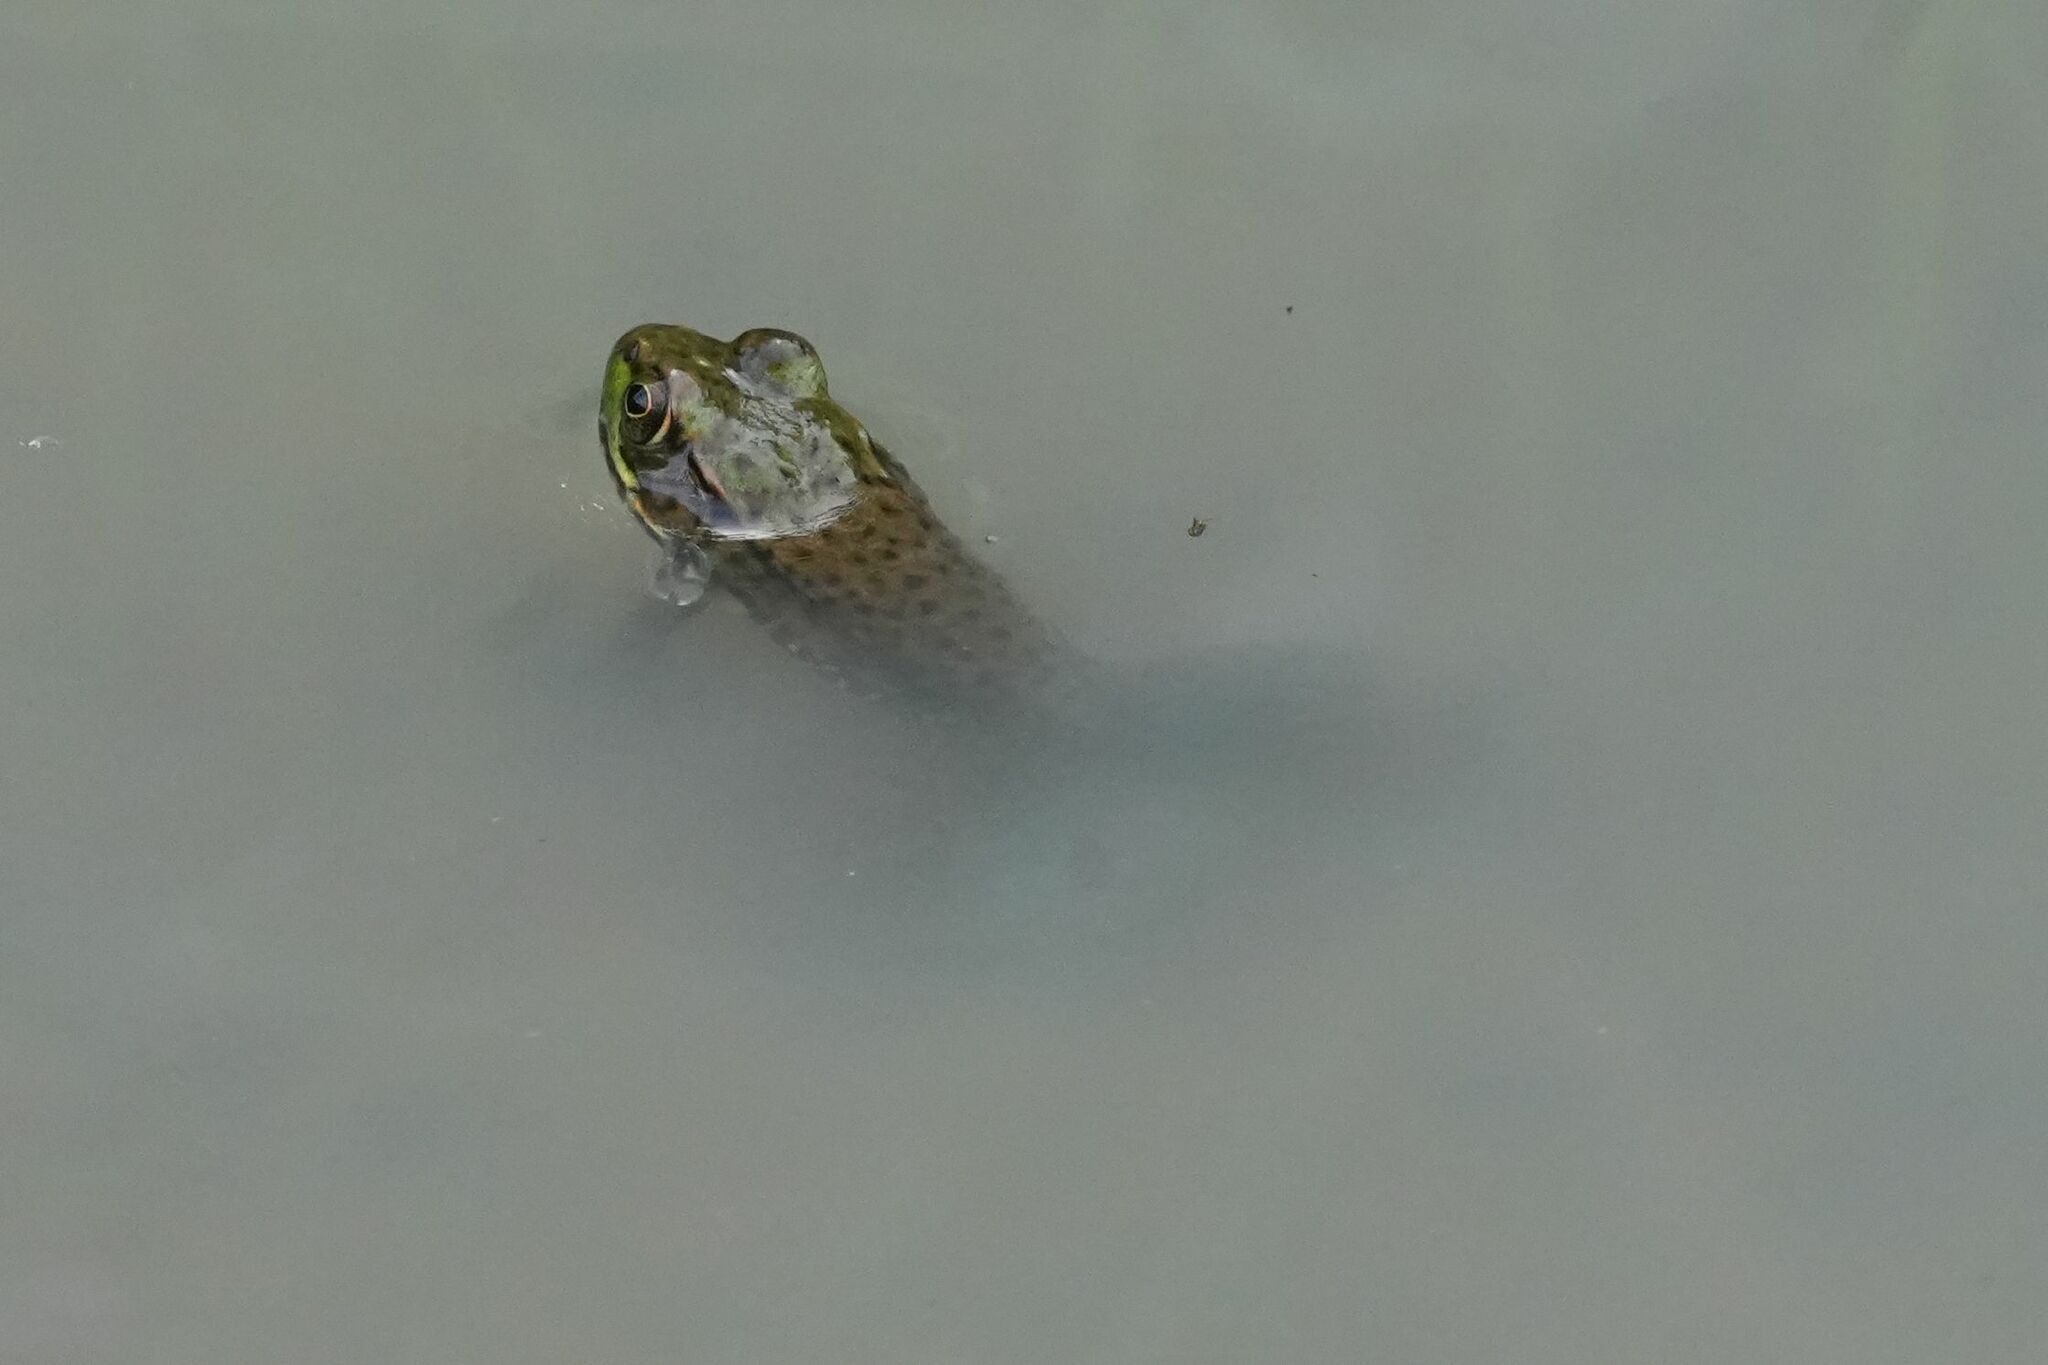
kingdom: Animalia
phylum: Chordata
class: Amphibia
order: Anura
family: Ranidae
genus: Lithobates
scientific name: Lithobates clamitans
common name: Green frog
